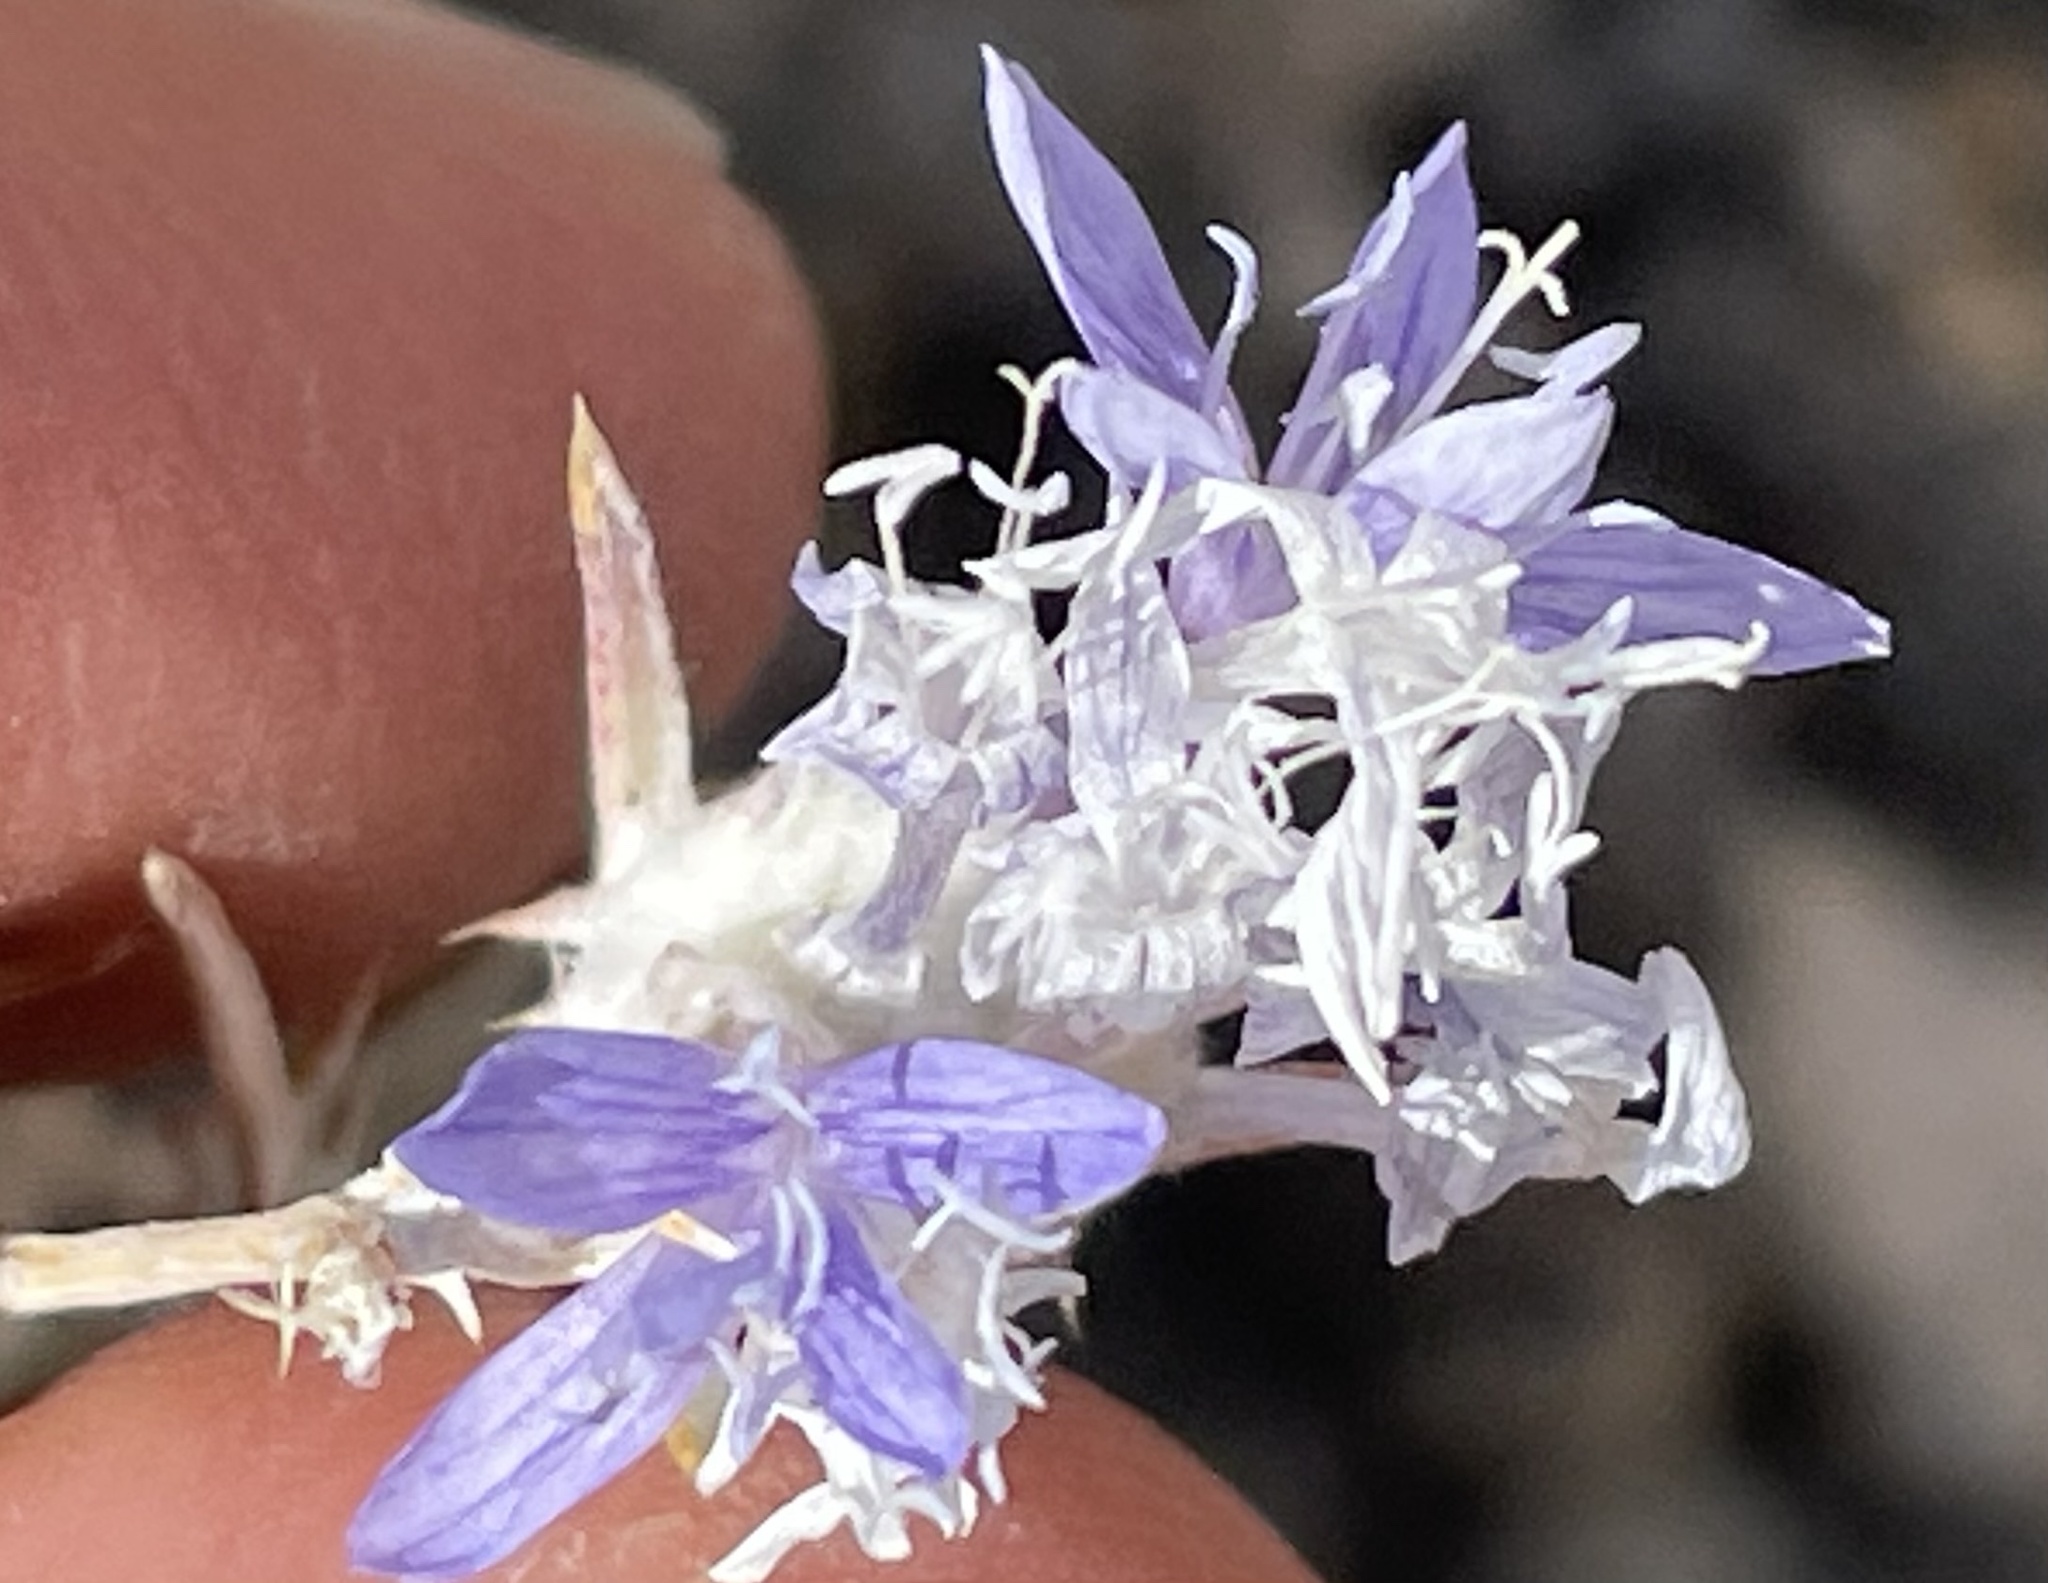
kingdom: Plantae
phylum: Tracheophyta
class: Magnoliopsida
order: Ericales
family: Polemoniaceae
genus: Eriastrum
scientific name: Eriastrum densifolium
